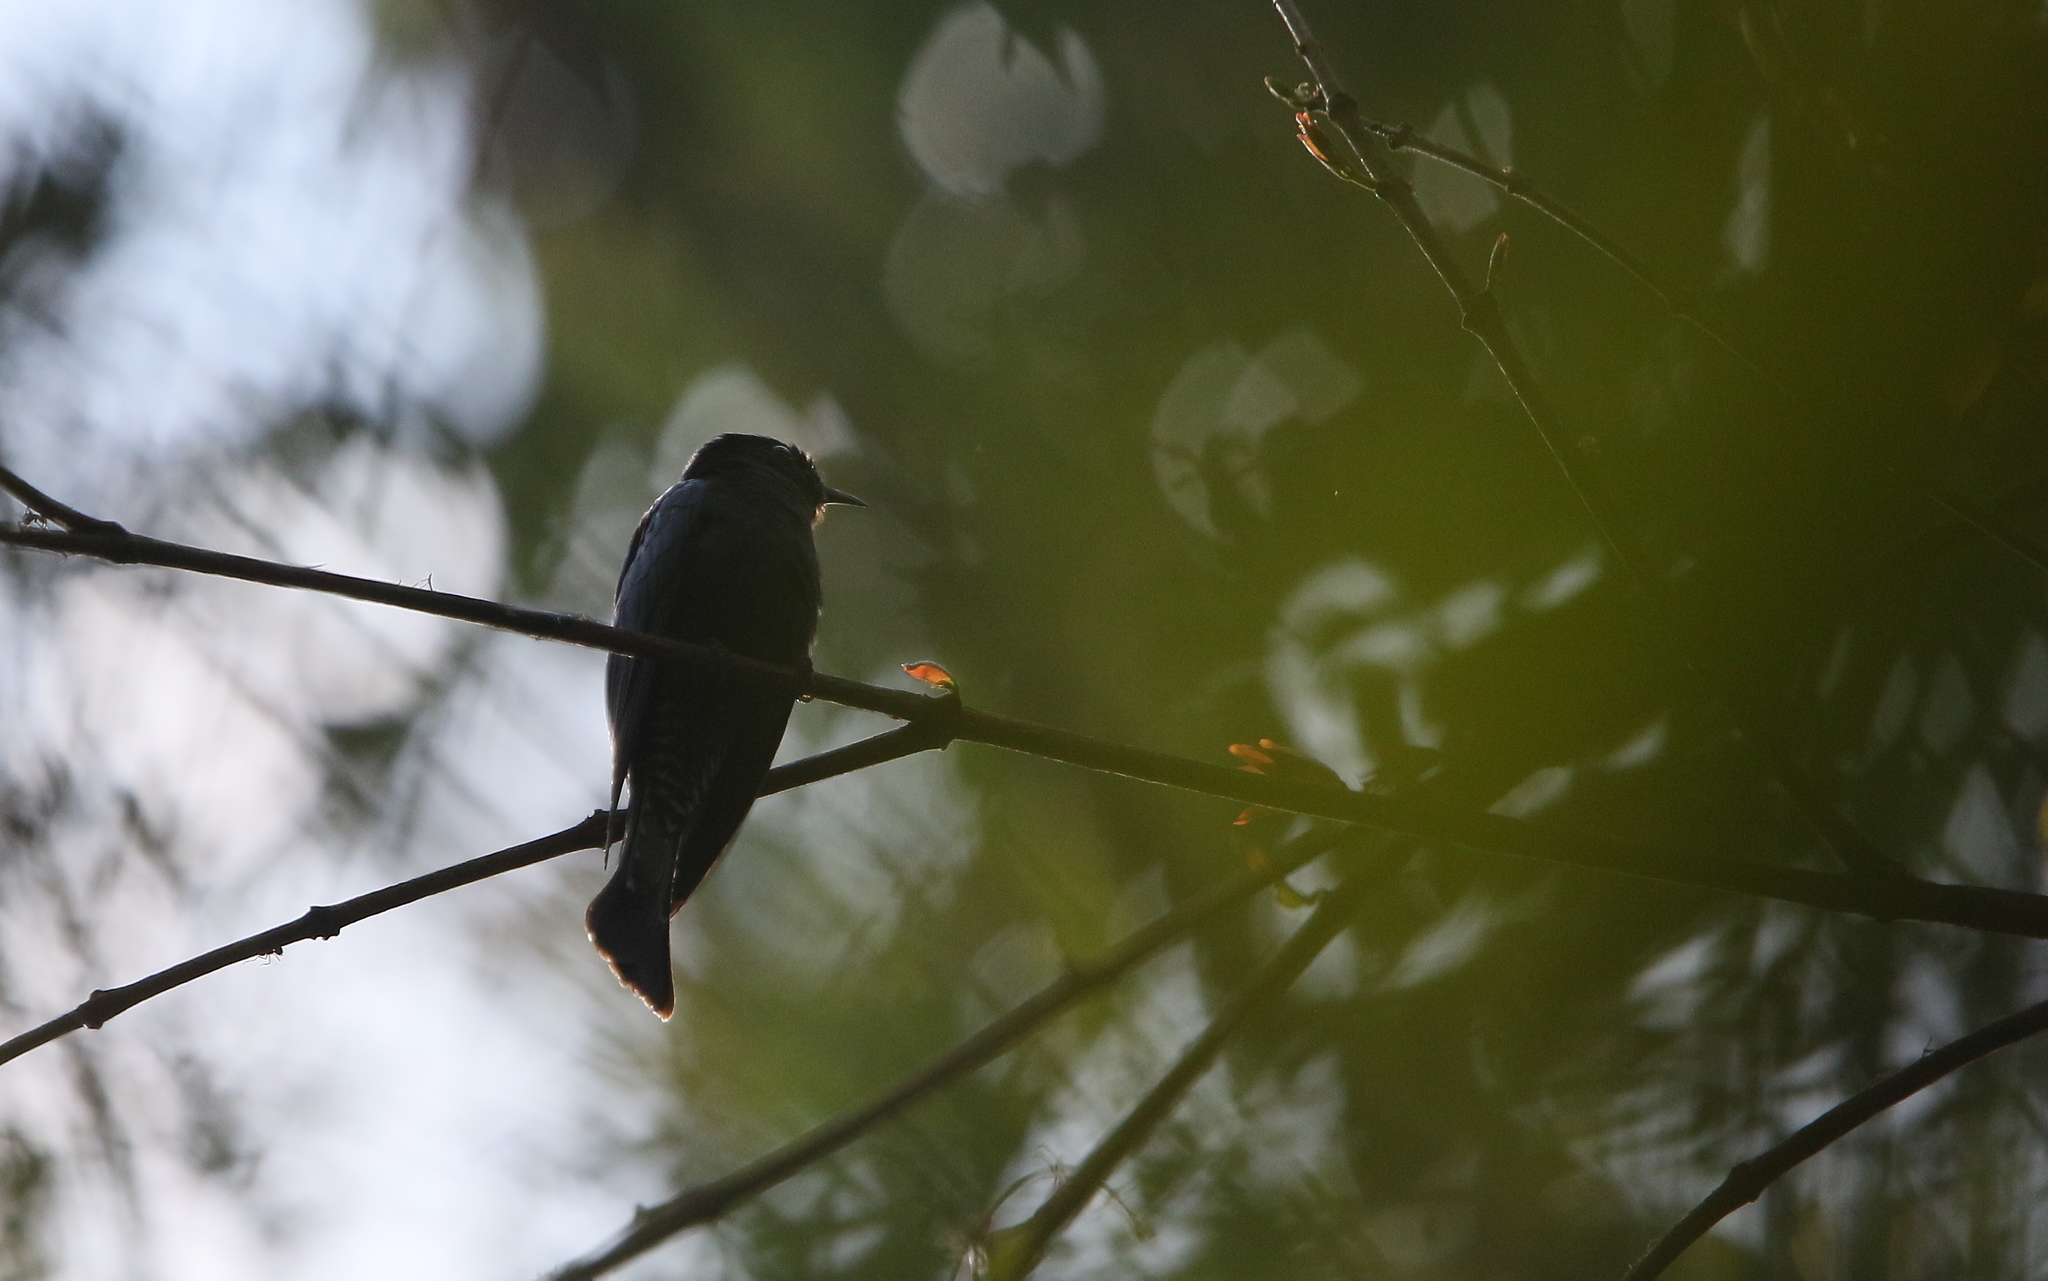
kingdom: Animalia
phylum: Chordata
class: Aves
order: Cuculiformes
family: Cuculidae
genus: Surniculus
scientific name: Surniculus lugubris
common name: Square-tailed drongo-cuckoo
